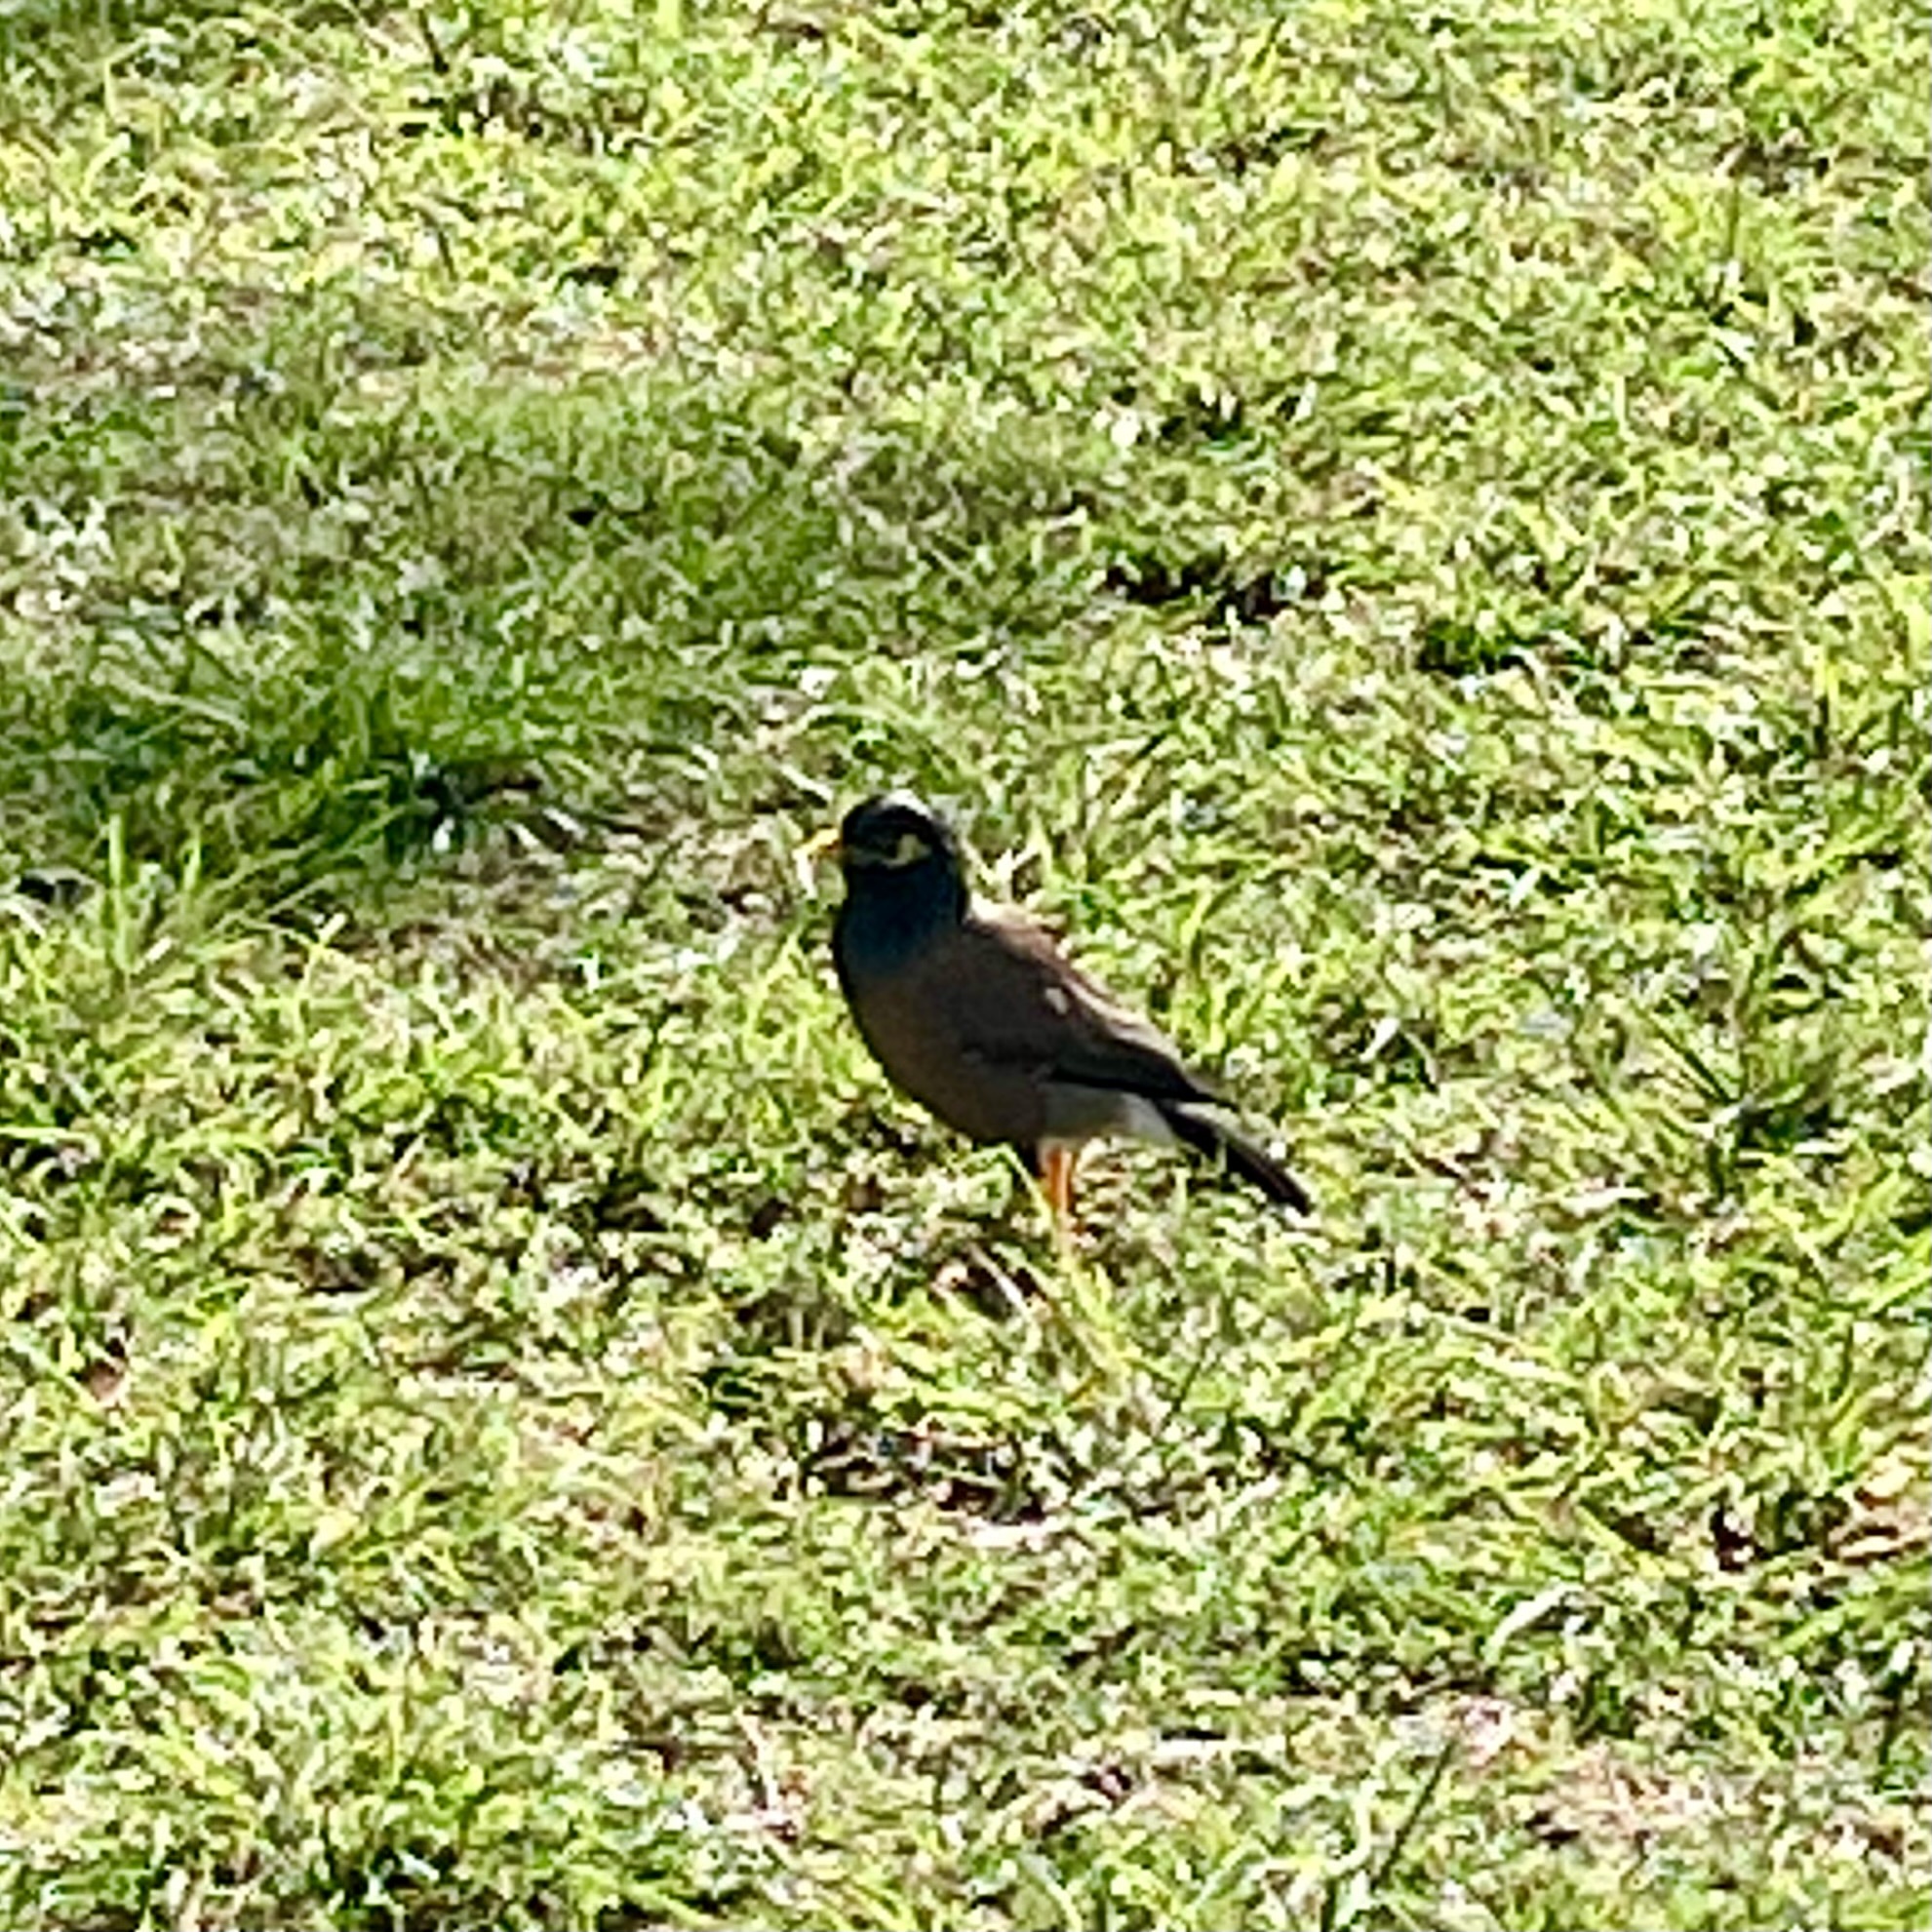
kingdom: Animalia
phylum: Chordata
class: Aves
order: Passeriformes
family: Sturnidae
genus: Acridotheres
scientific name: Acridotheres tristis
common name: Common myna
